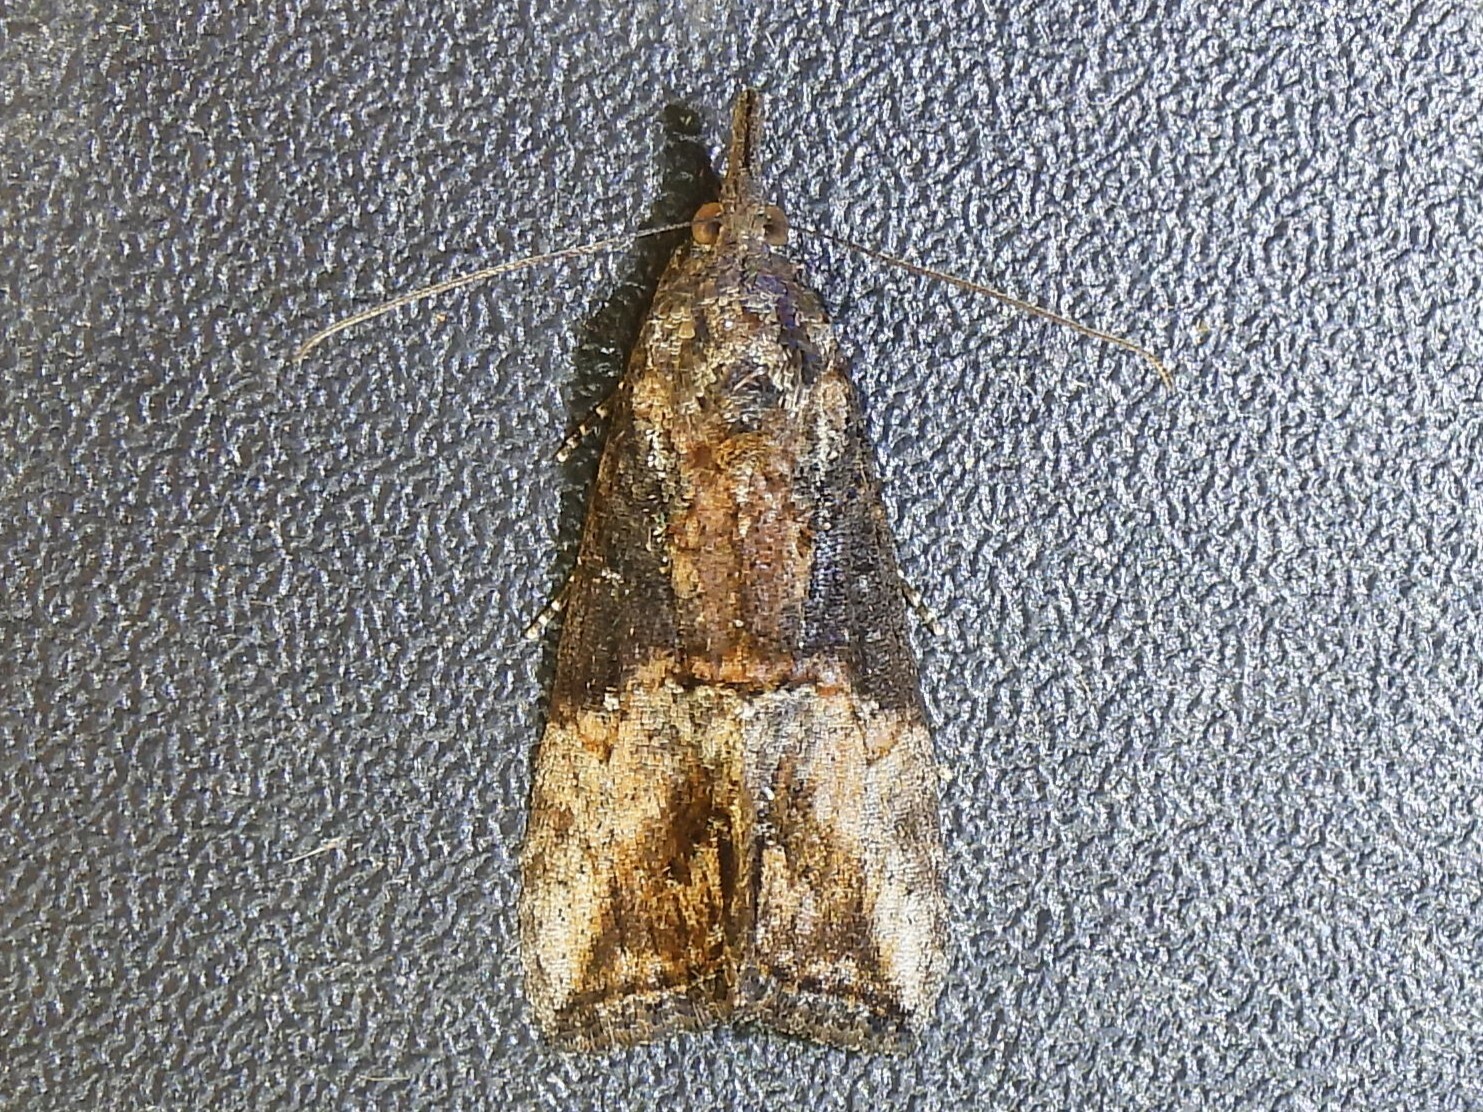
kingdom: Animalia
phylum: Arthropoda
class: Insecta
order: Lepidoptera
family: Erebidae
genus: Hypena
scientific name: Hypena scabra
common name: Green cloverworm
